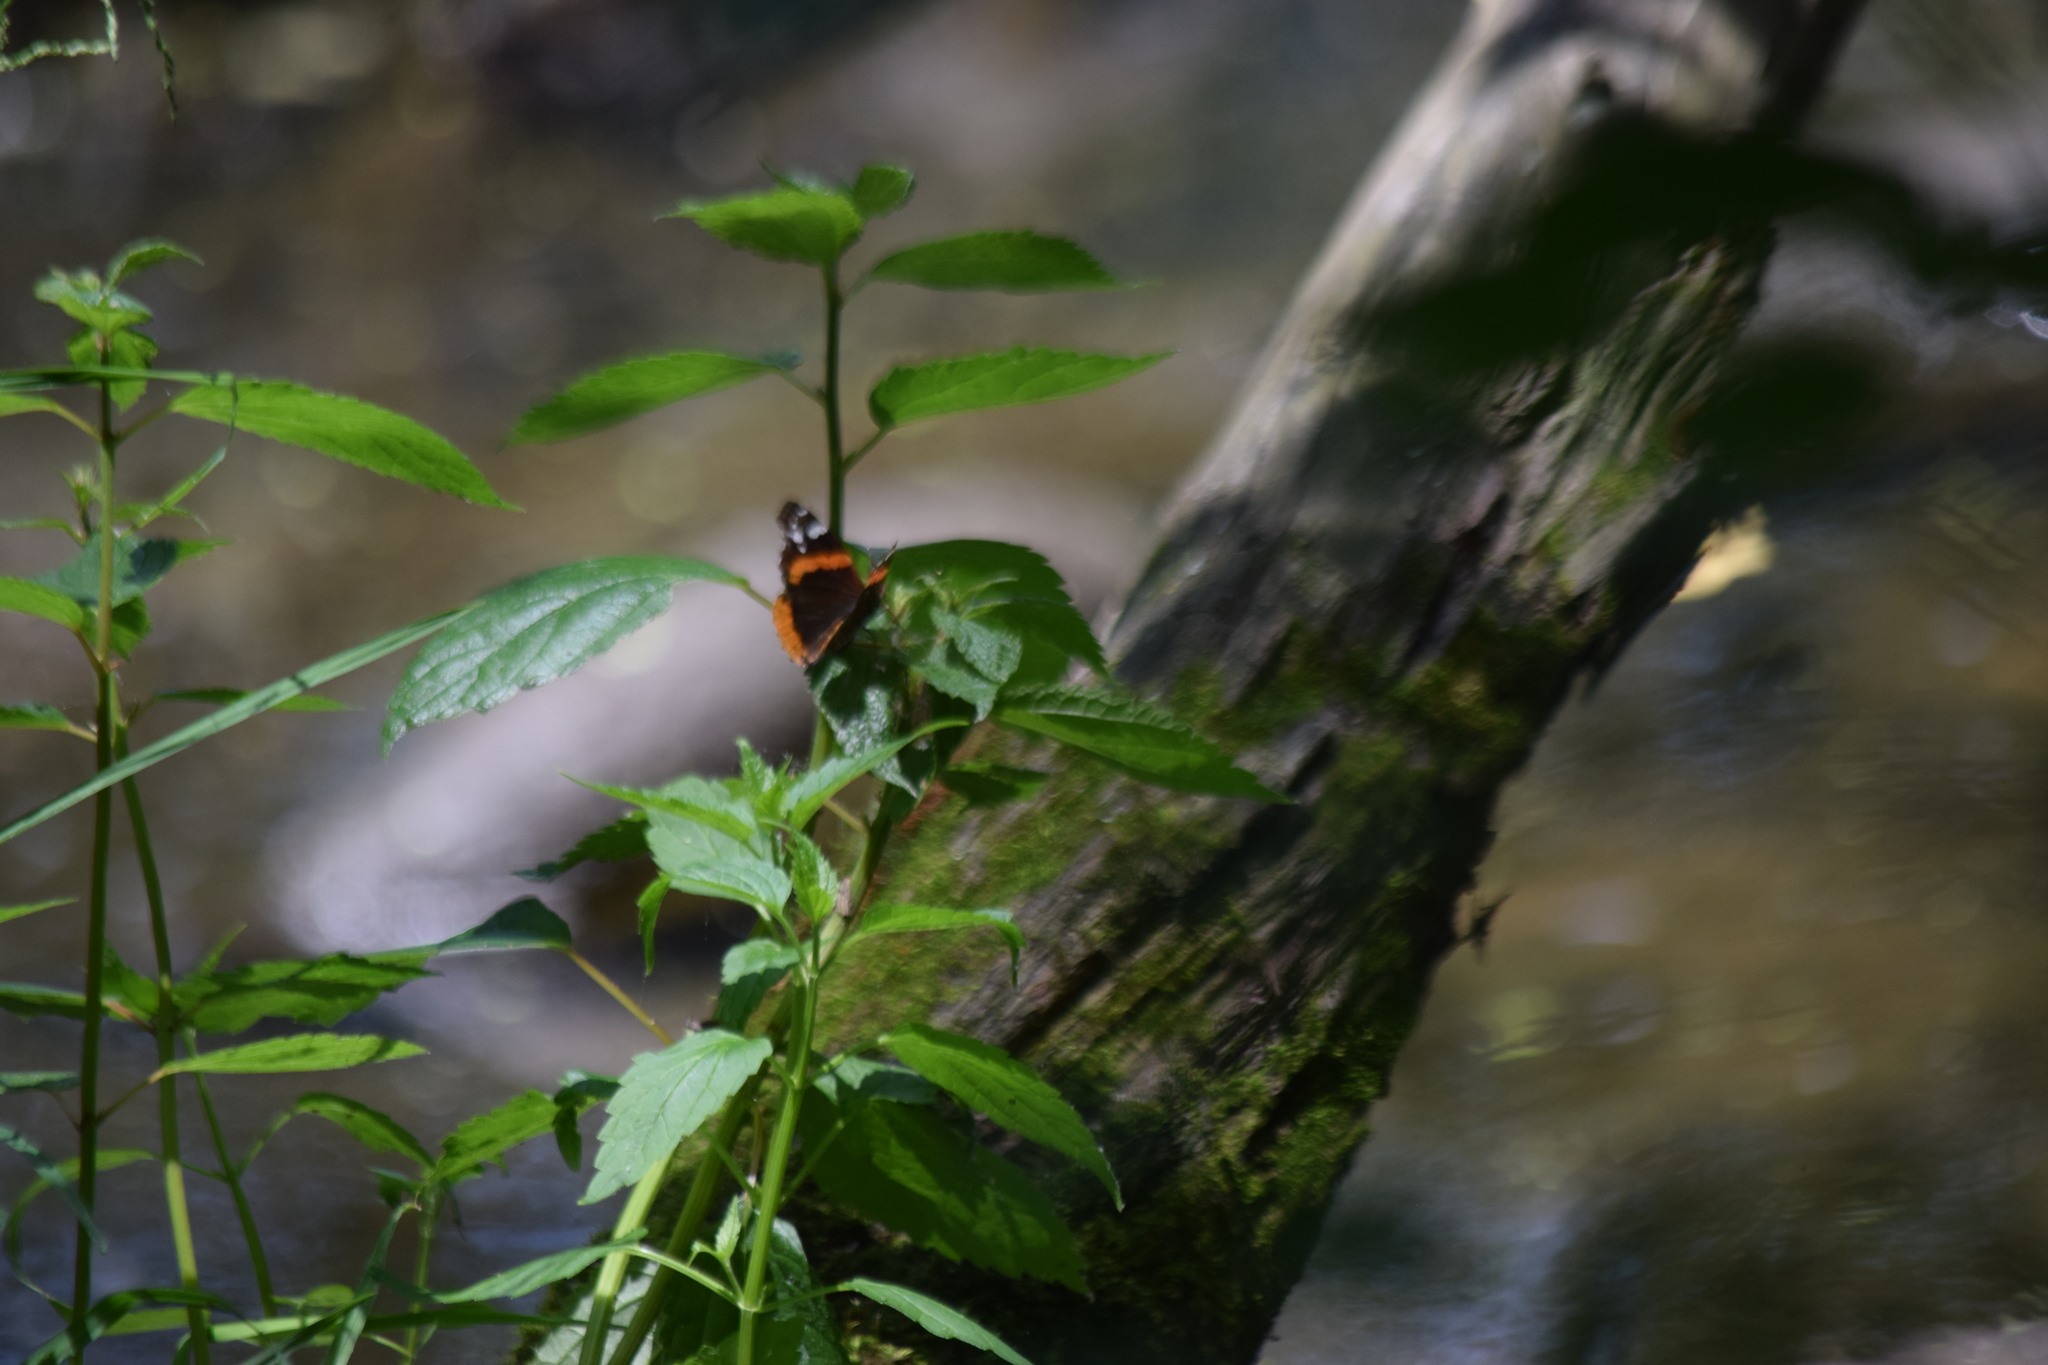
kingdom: Animalia
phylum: Arthropoda
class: Insecta
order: Lepidoptera
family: Nymphalidae
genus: Vanessa
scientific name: Vanessa atalanta
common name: Red admiral
